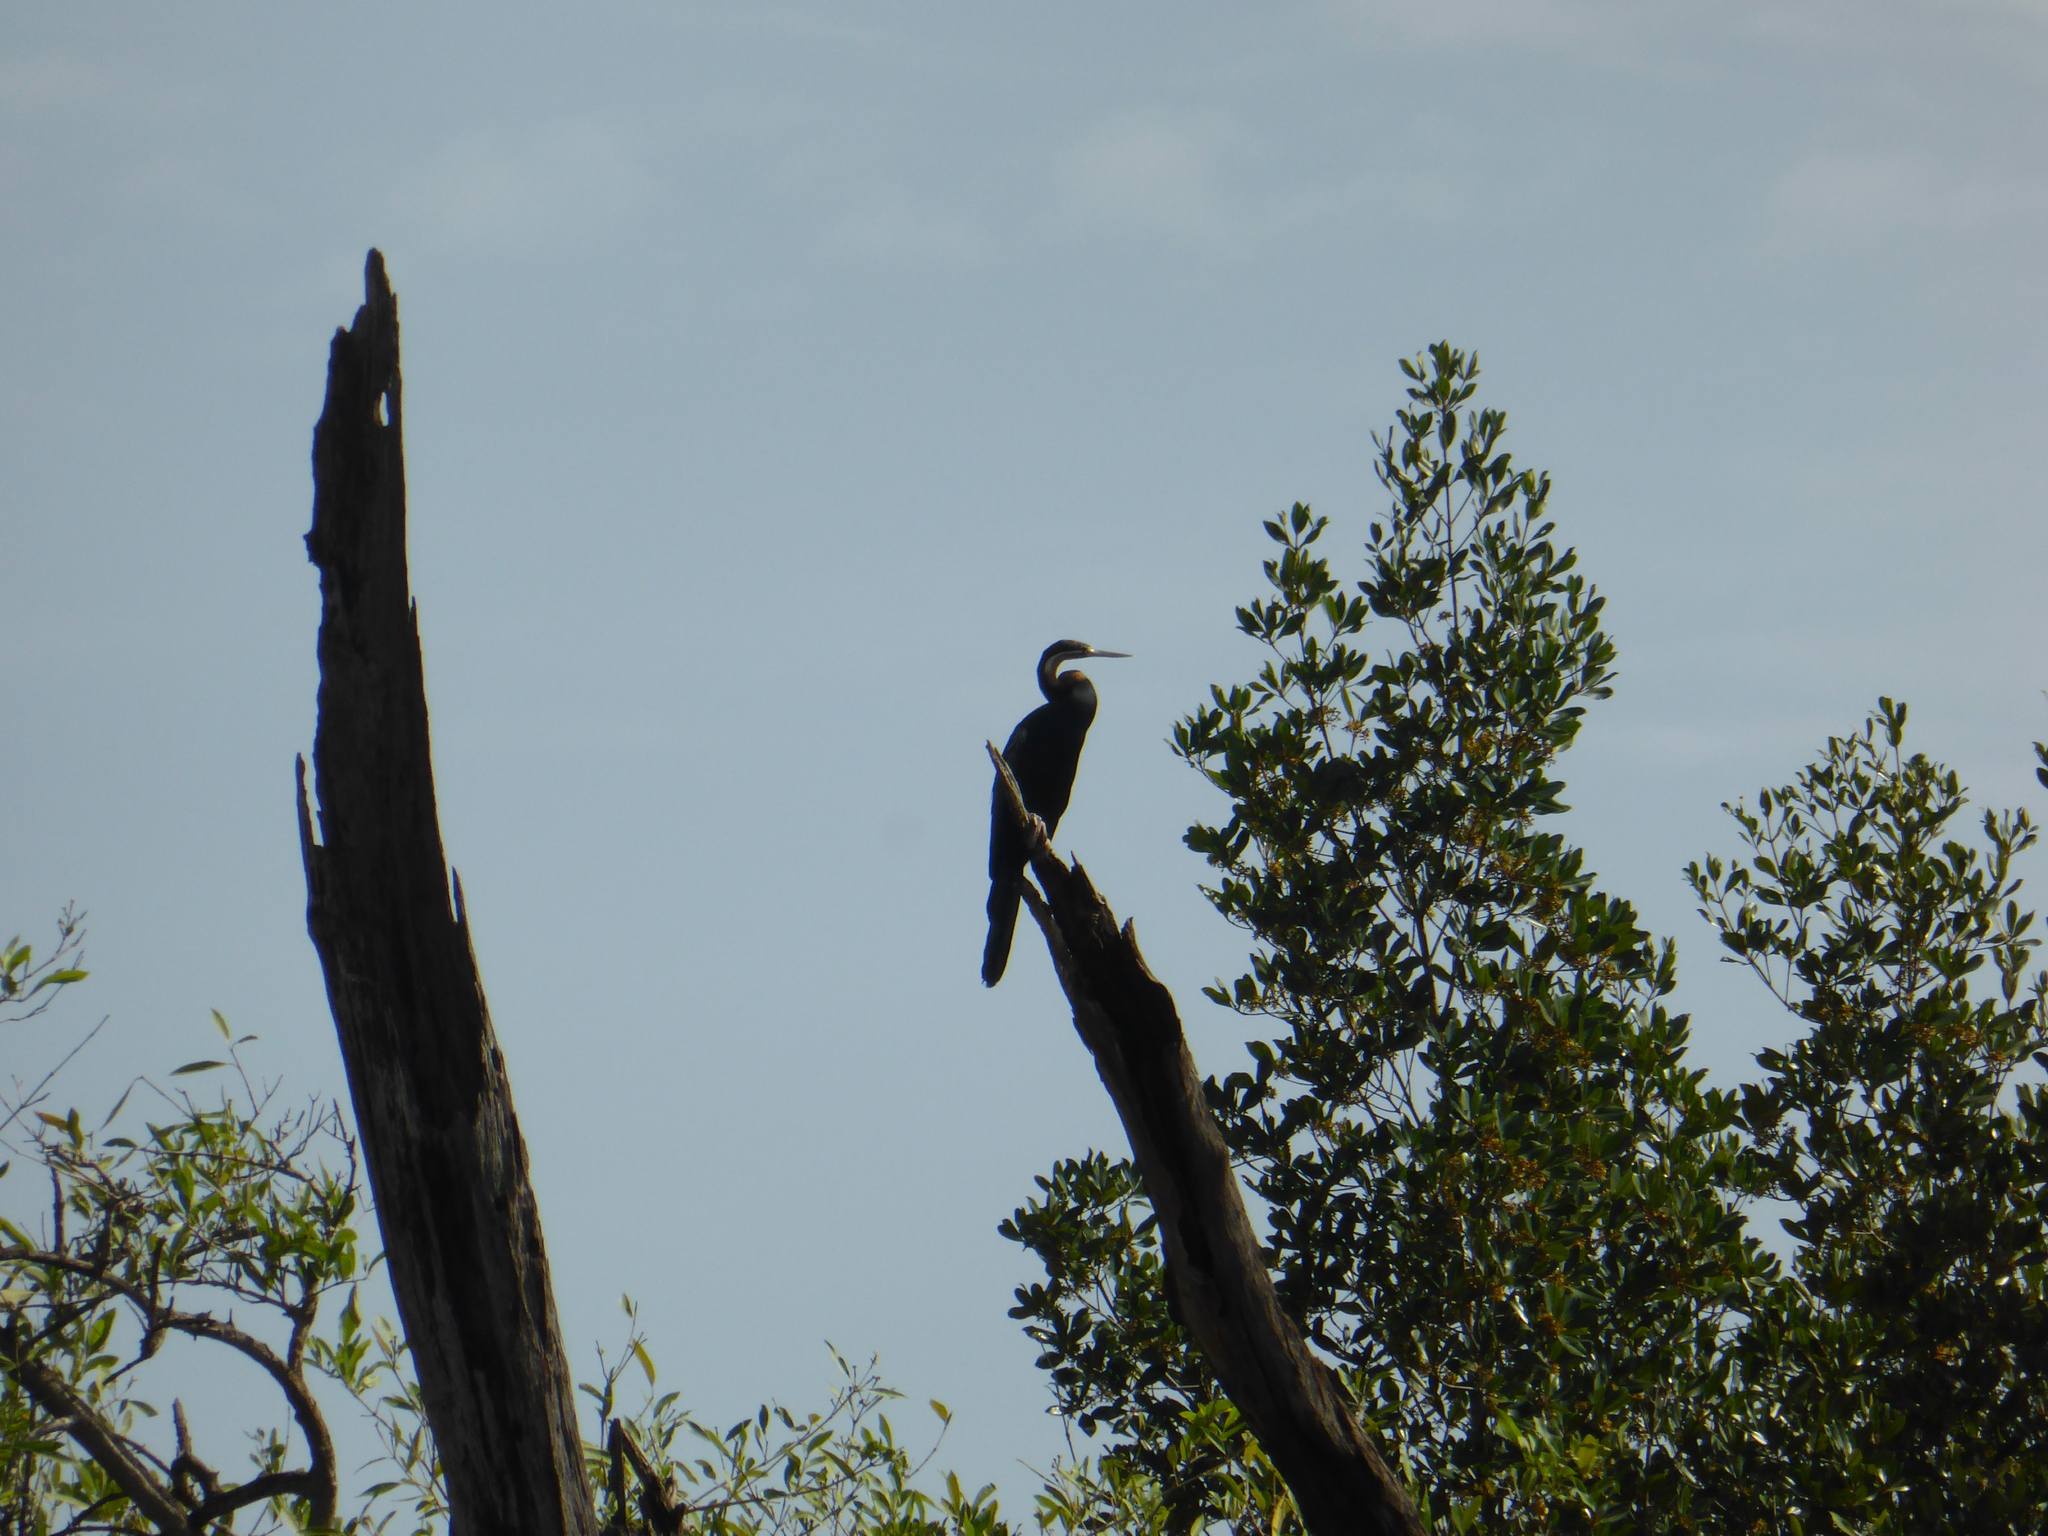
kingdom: Animalia
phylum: Chordata
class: Aves
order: Suliformes
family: Anhingidae
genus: Anhinga
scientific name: Anhinga rufa
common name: African darter
